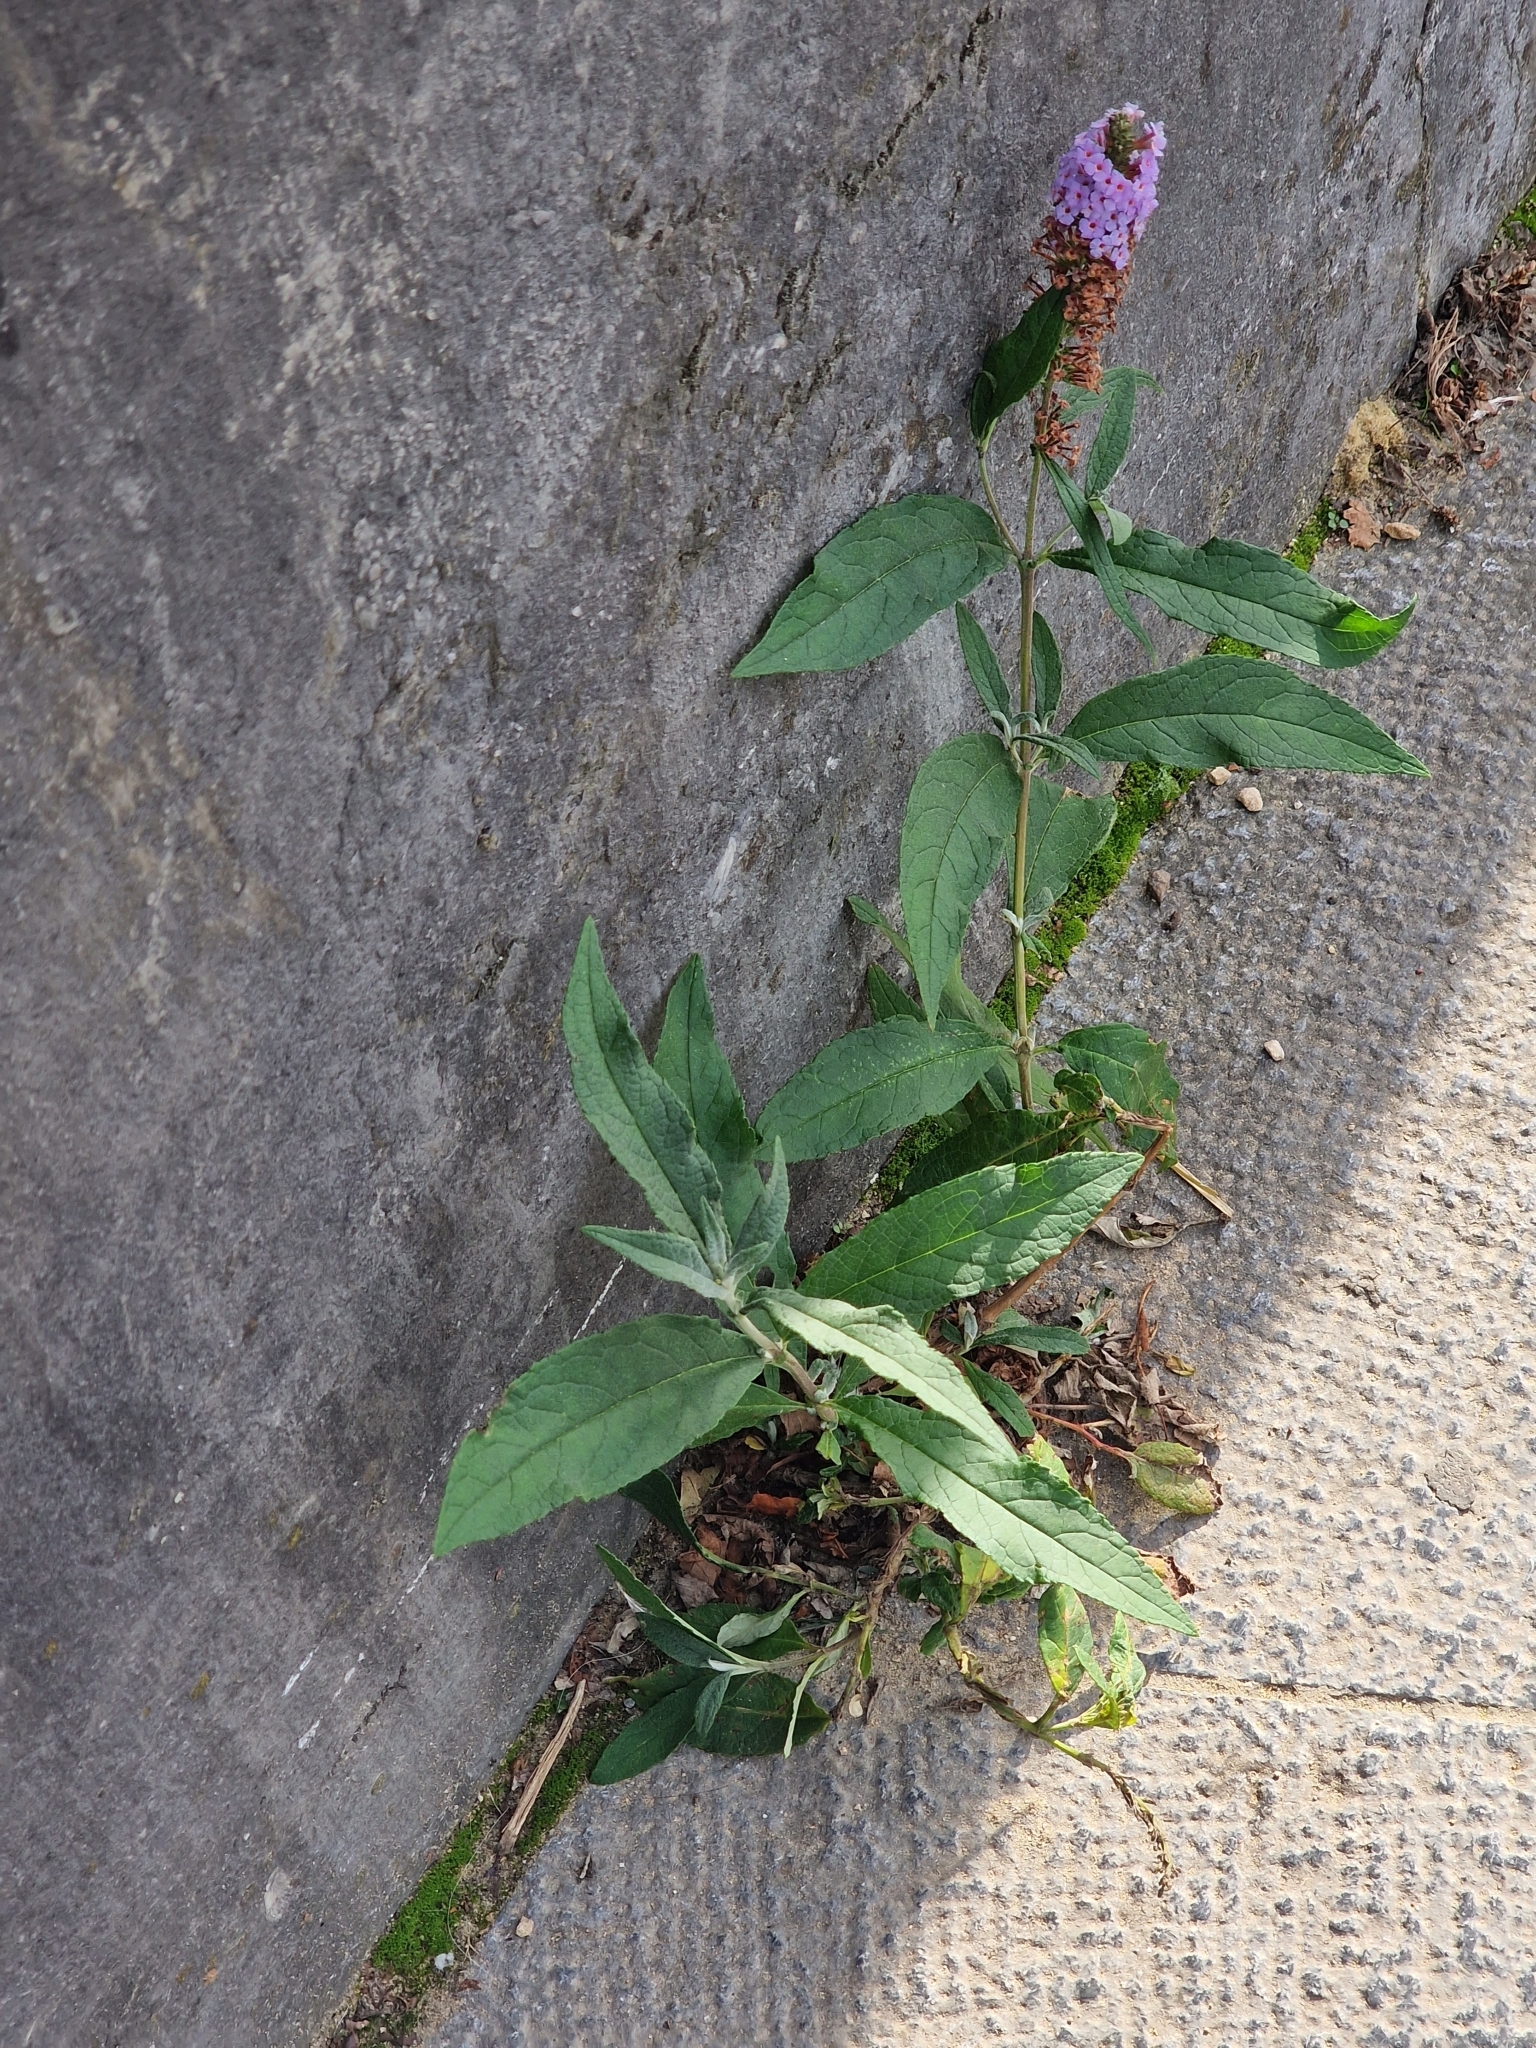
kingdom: Plantae
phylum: Tracheophyta
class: Magnoliopsida
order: Lamiales
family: Scrophulariaceae
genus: Buddleja
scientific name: Buddleja davidii
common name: Butterfly-bush
